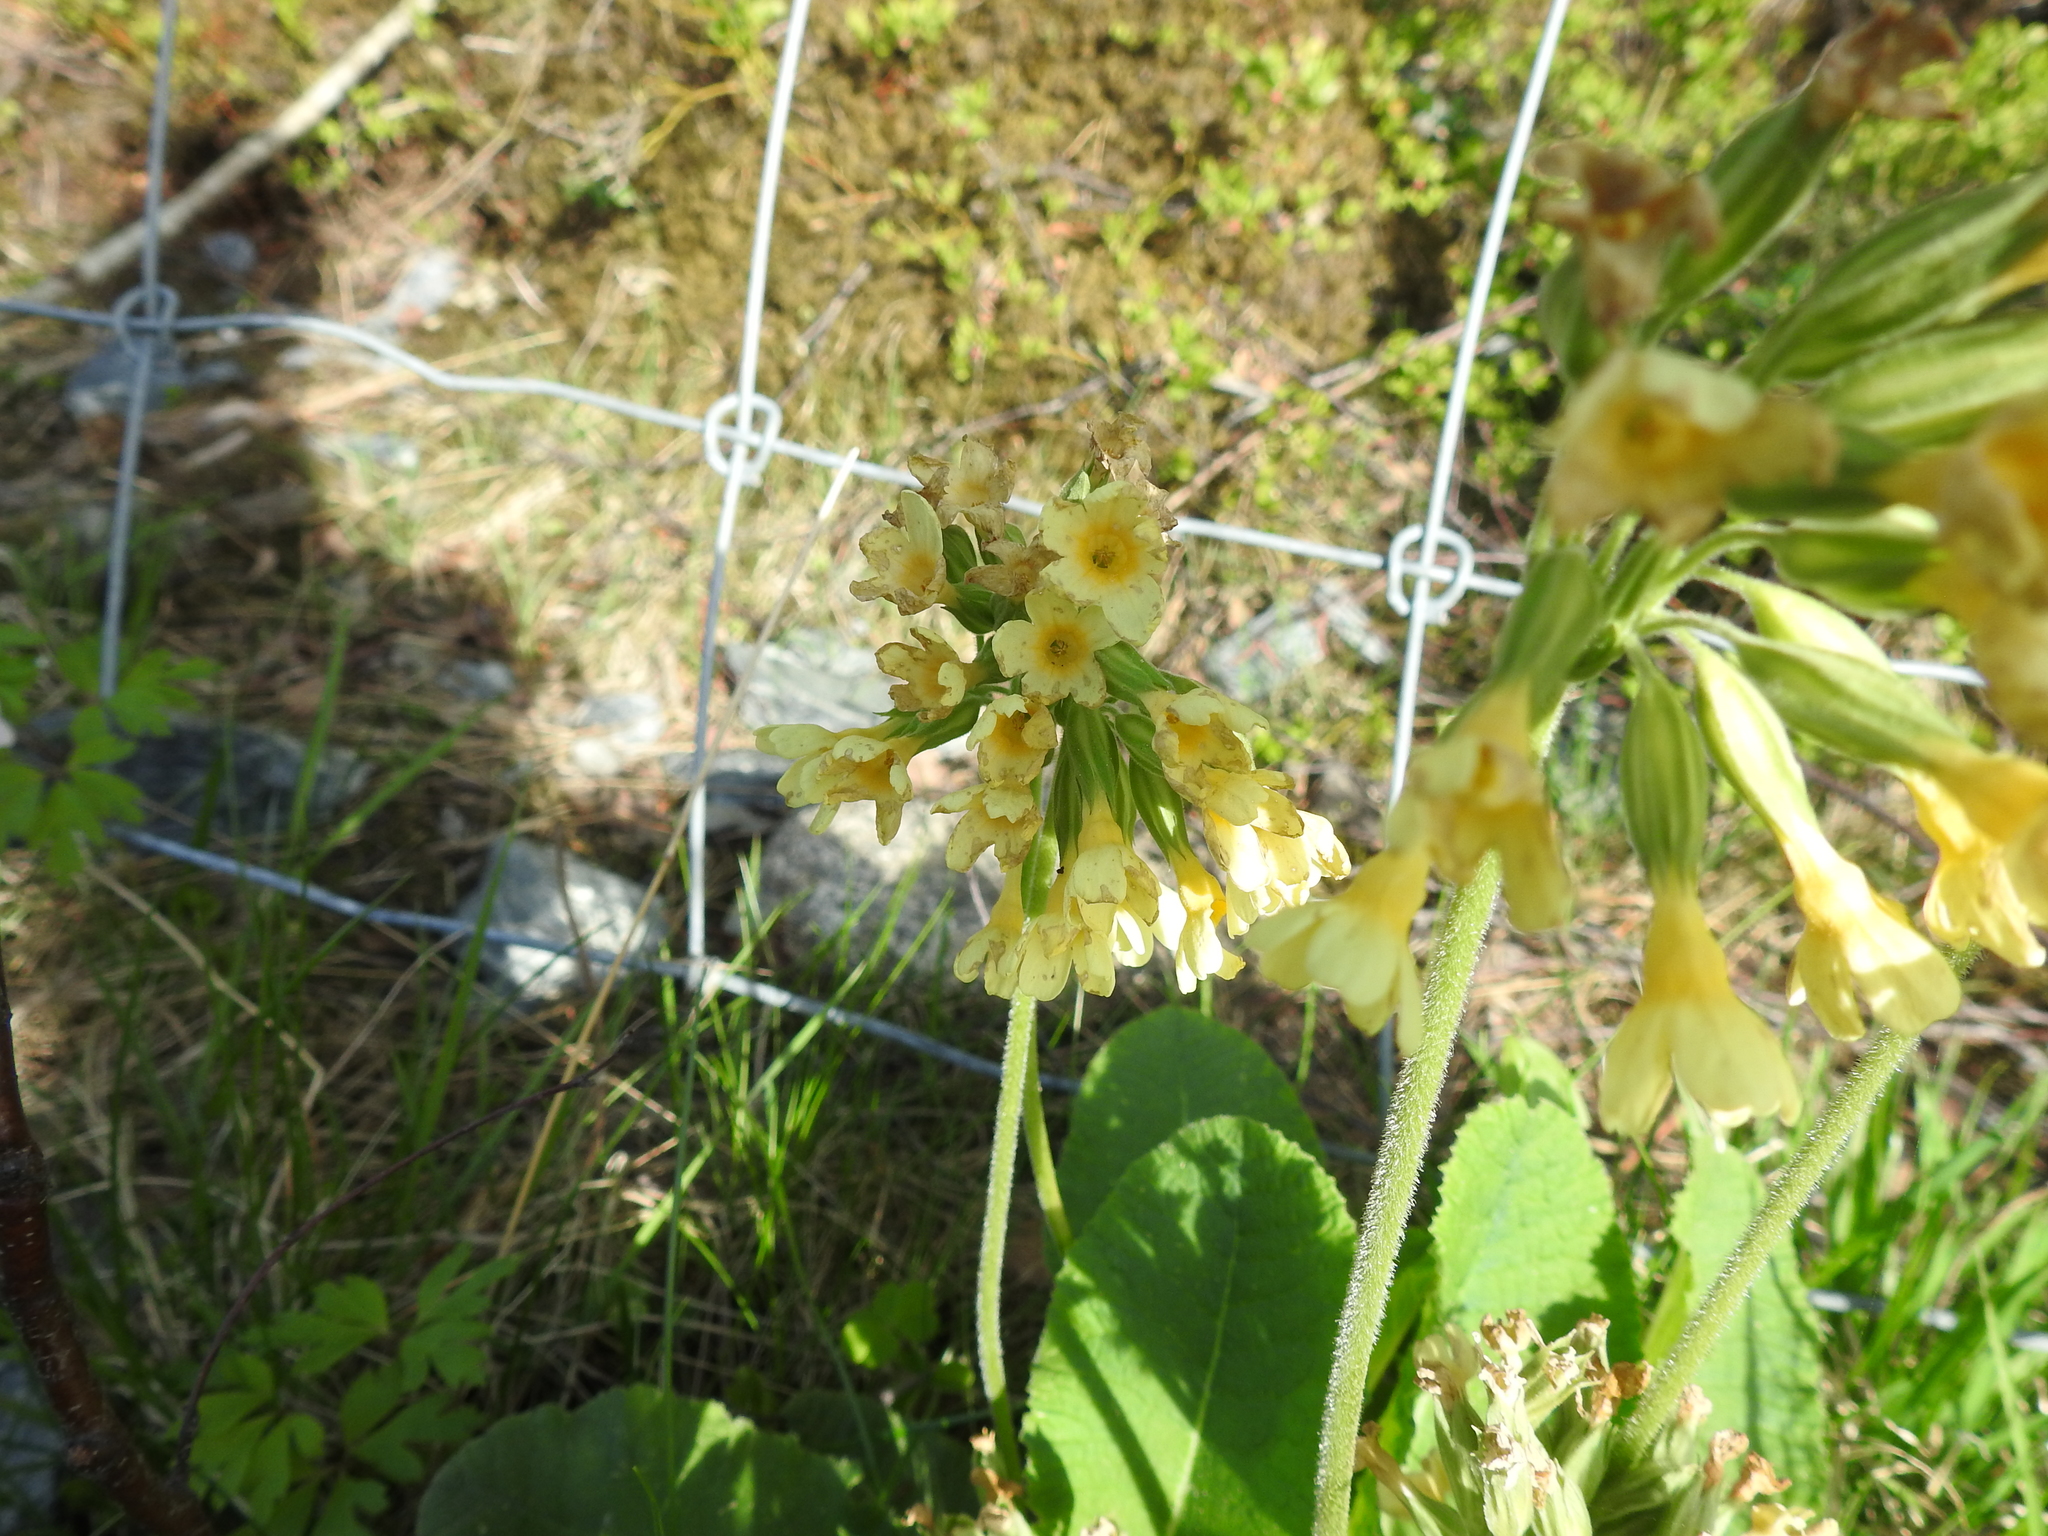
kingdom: Plantae
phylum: Tracheophyta
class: Magnoliopsida
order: Ericales
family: Primulaceae
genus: Primula
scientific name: Primula elatior
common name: Oxlip
